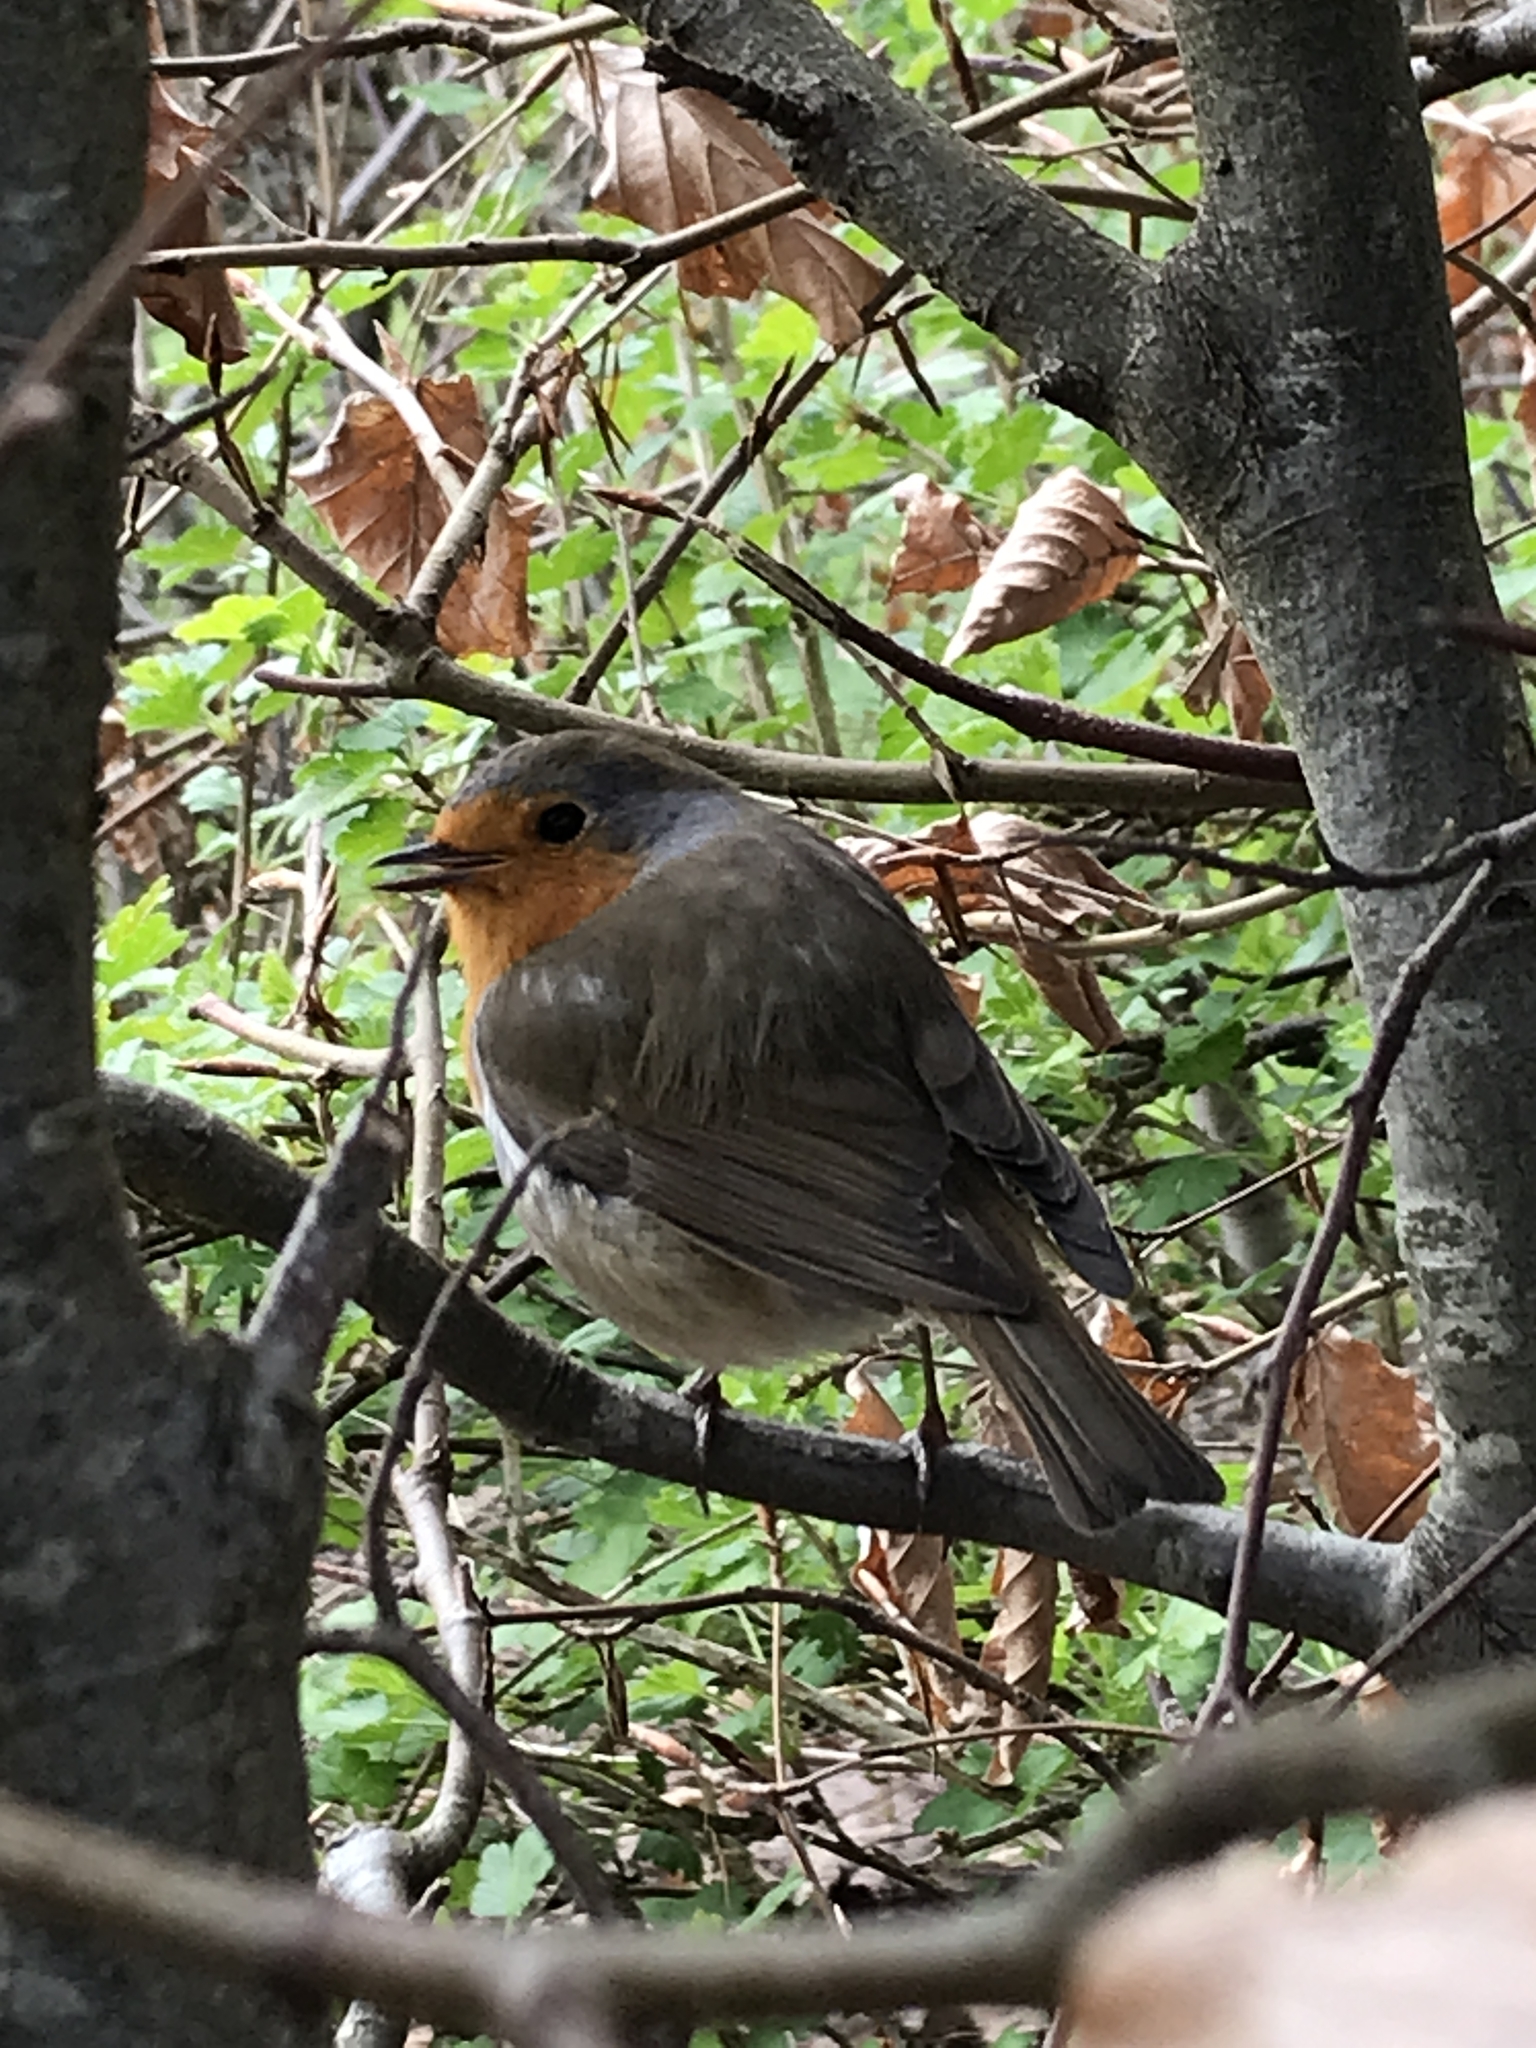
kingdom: Animalia
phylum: Chordata
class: Aves
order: Passeriformes
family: Muscicapidae
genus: Erithacus
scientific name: Erithacus rubecula
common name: European robin
